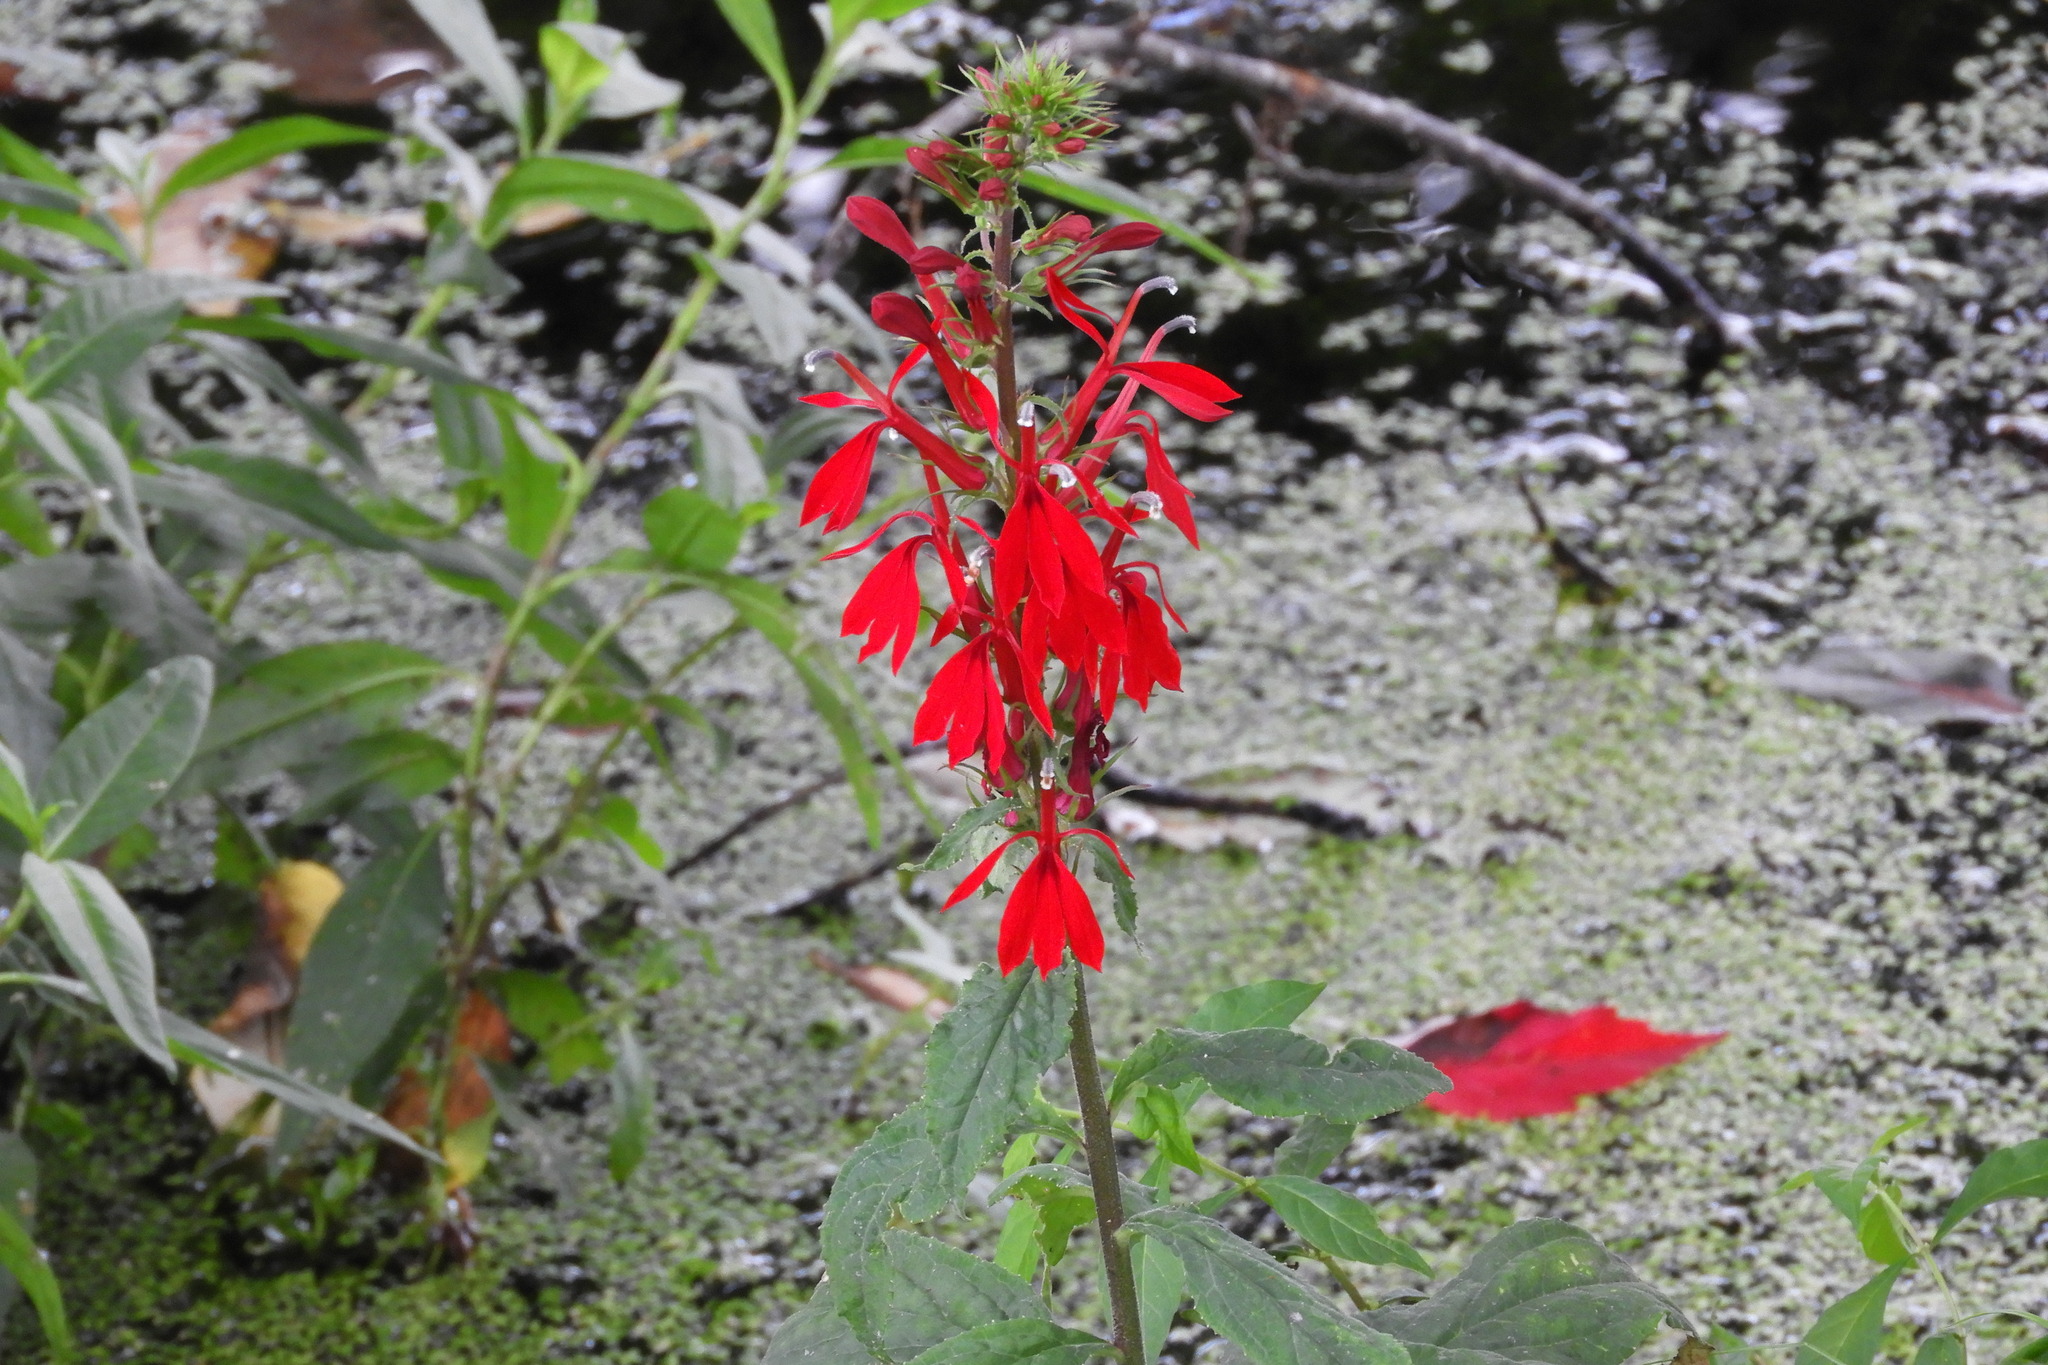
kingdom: Plantae
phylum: Tracheophyta
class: Magnoliopsida
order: Asterales
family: Campanulaceae
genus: Lobelia
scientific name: Lobelia cardinalis
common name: Cardinal flower
